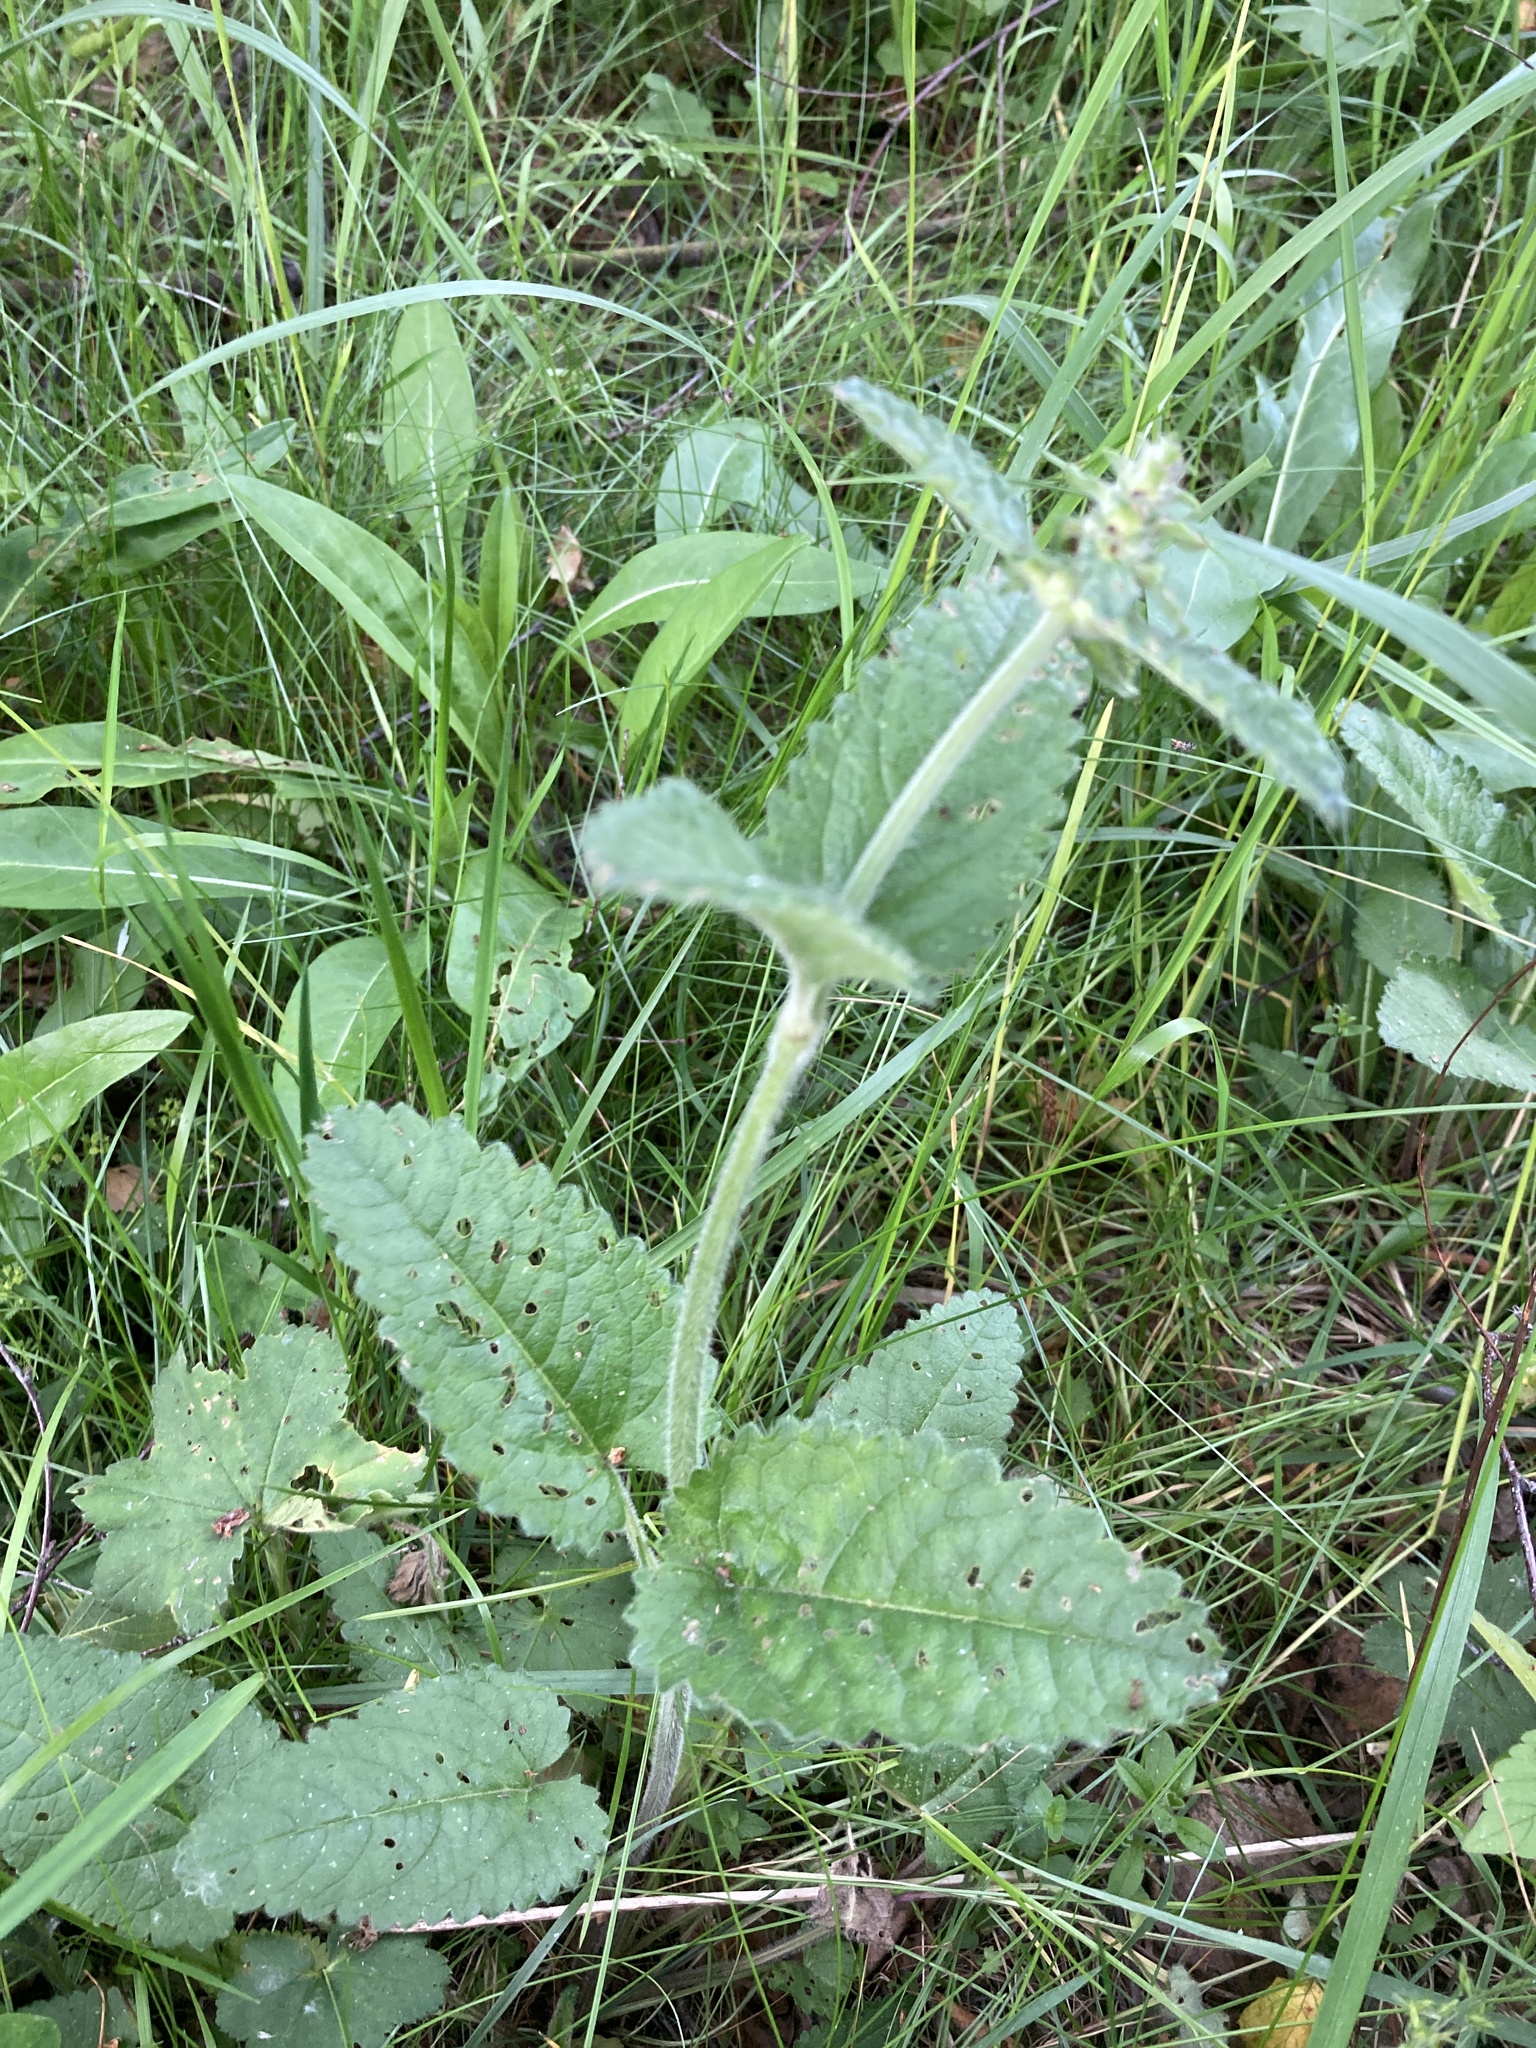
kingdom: Plantae
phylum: Tracheophyta
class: Magnoliopsida
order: Lamiales
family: Lamiaceae
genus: Betonica
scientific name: Betonica officinalis
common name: Bishop's-wort
